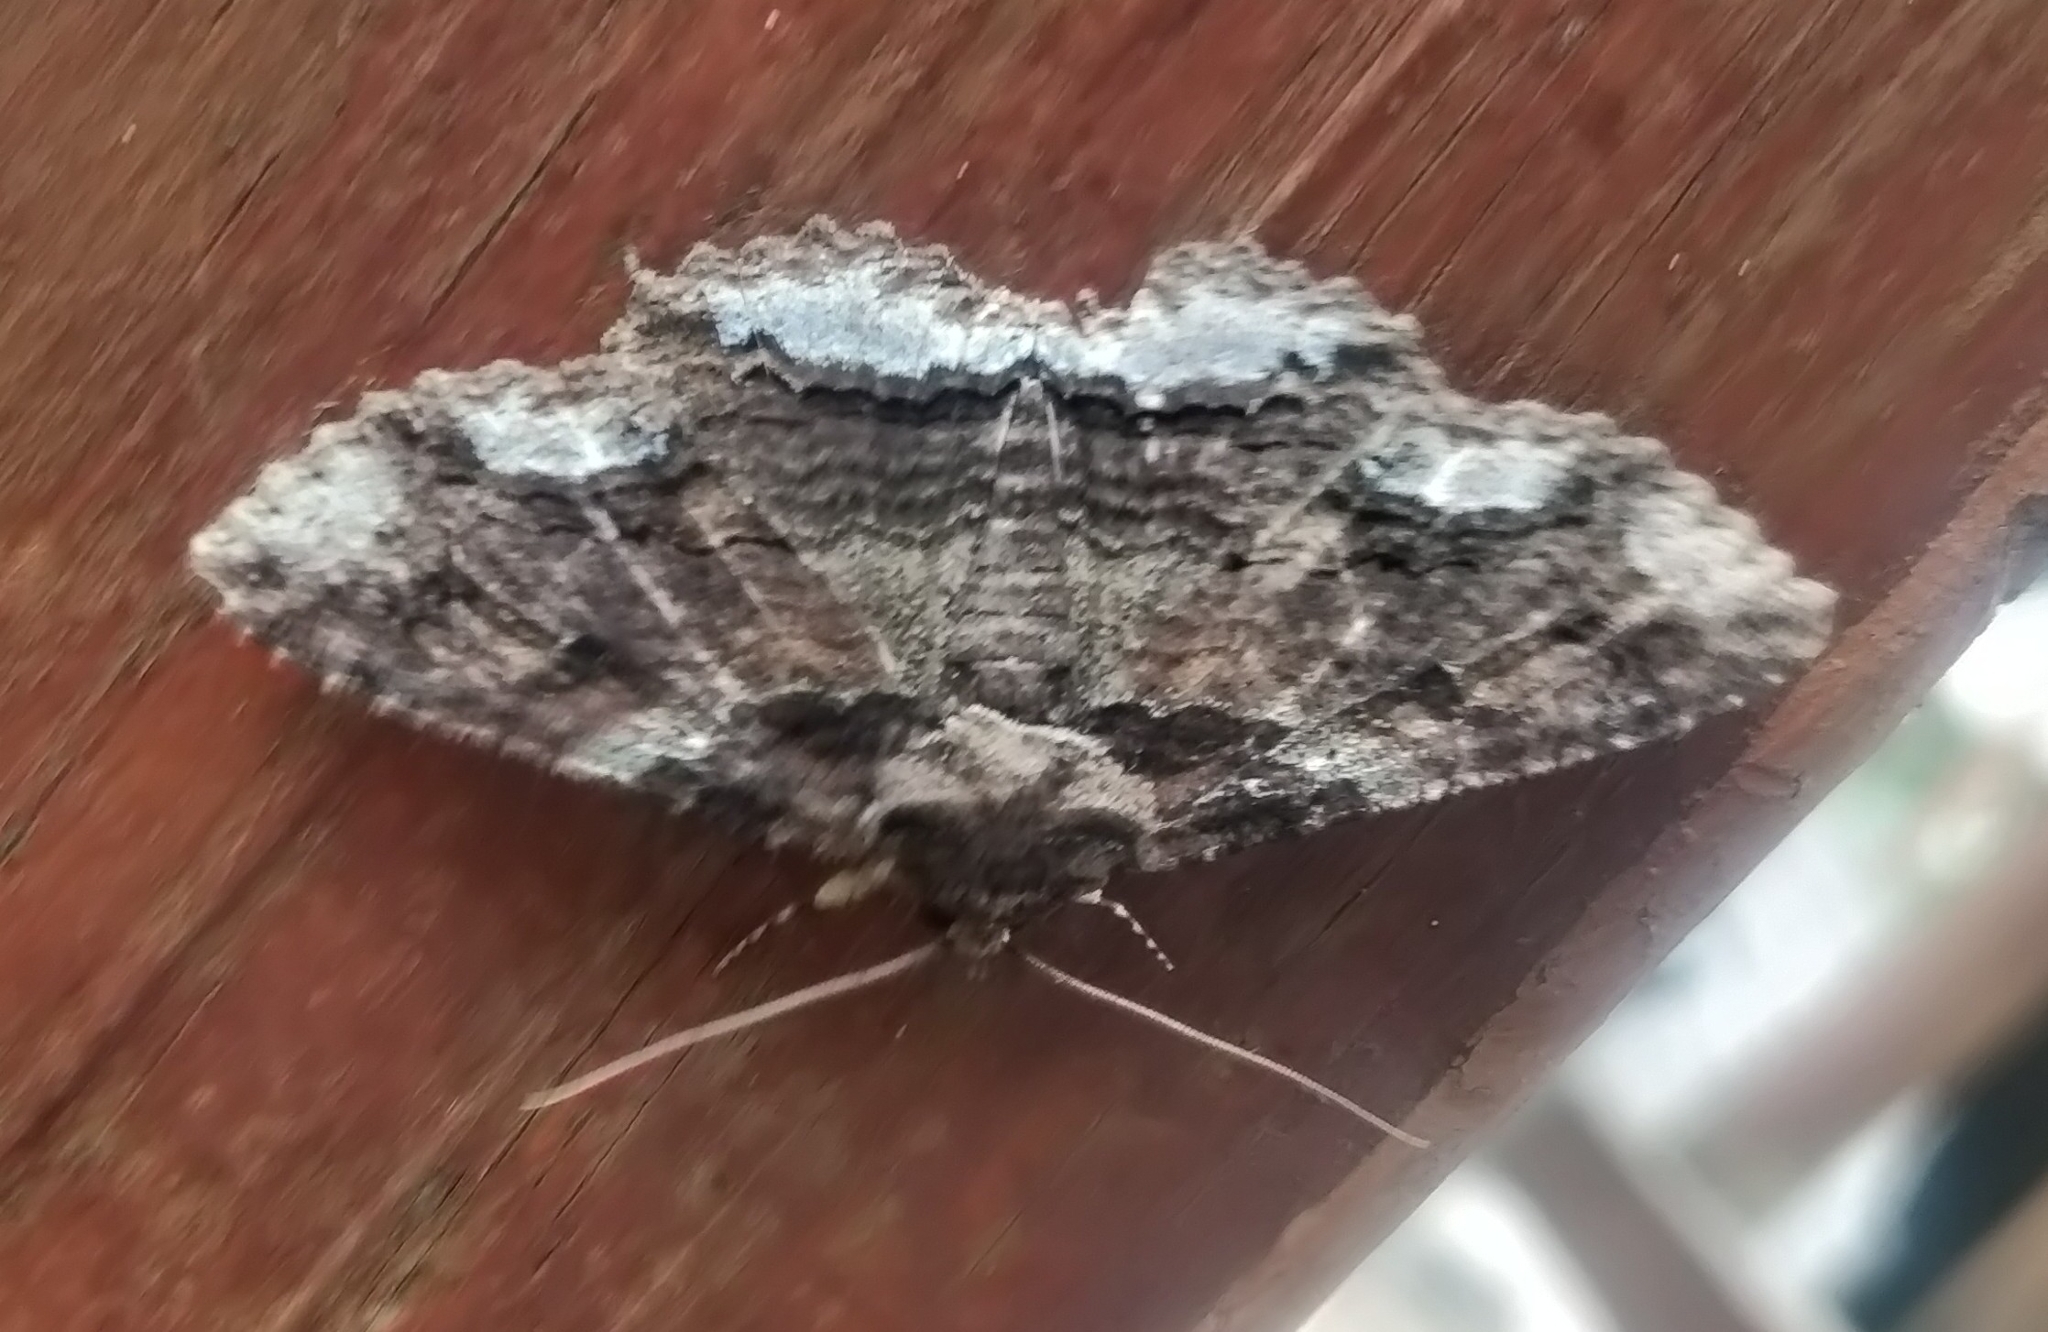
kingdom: Animalia
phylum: Arthropoda
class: Insecta
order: Lepidoptera
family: Erebidae
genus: Zale
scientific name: Zale lunata
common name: Lunate zale moth
